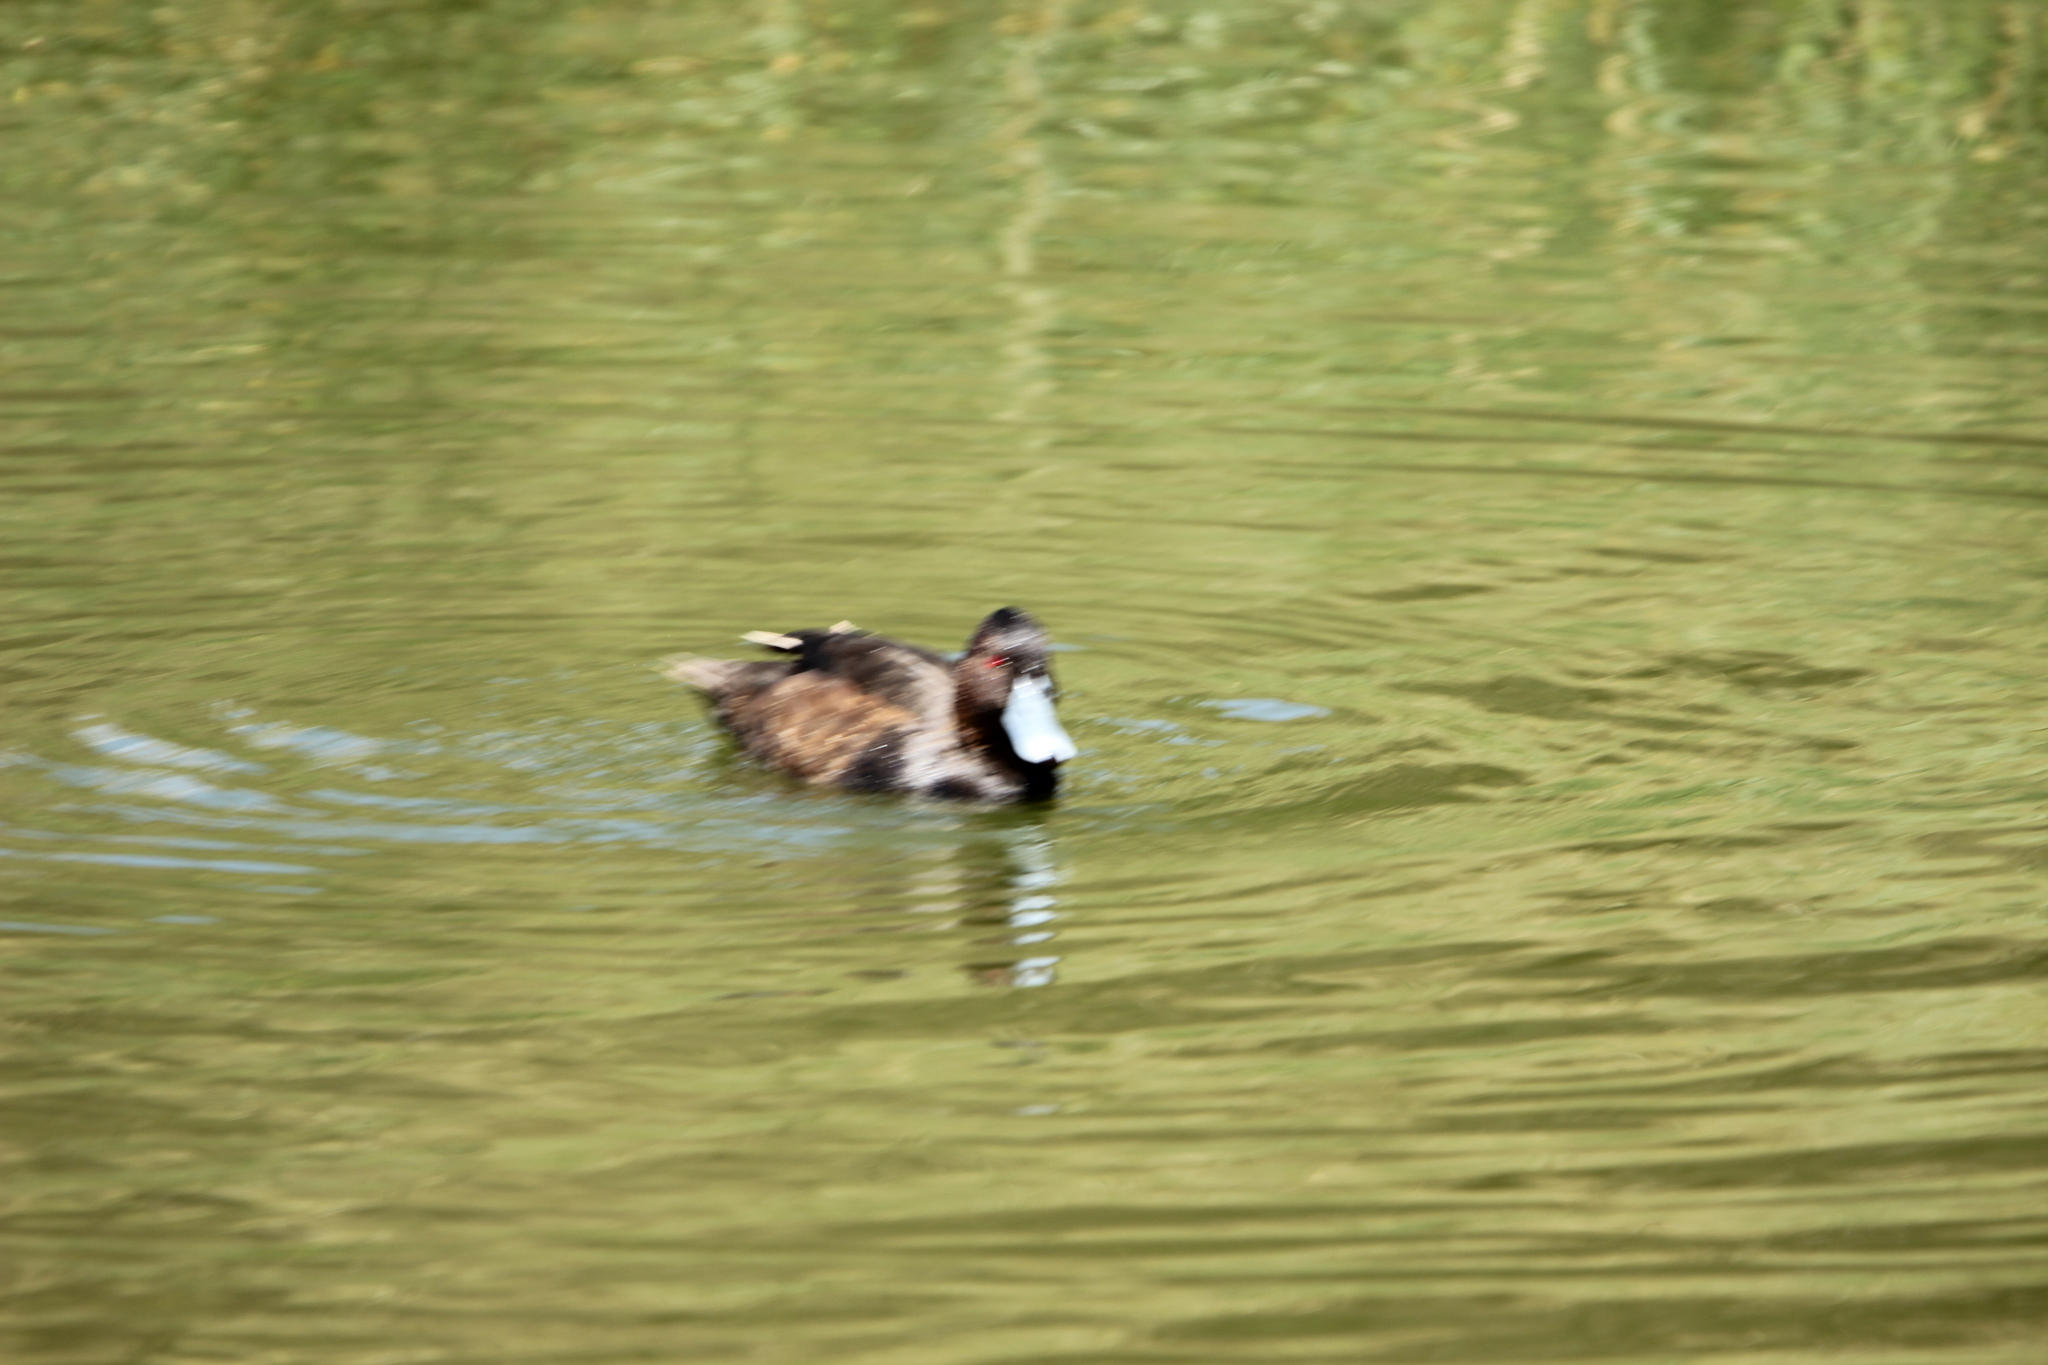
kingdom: Animalia
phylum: Chordata
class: Aves
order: Anseriformes
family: Anatidae
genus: Netta
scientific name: Netta erythrophthalma
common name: Southern pochard
